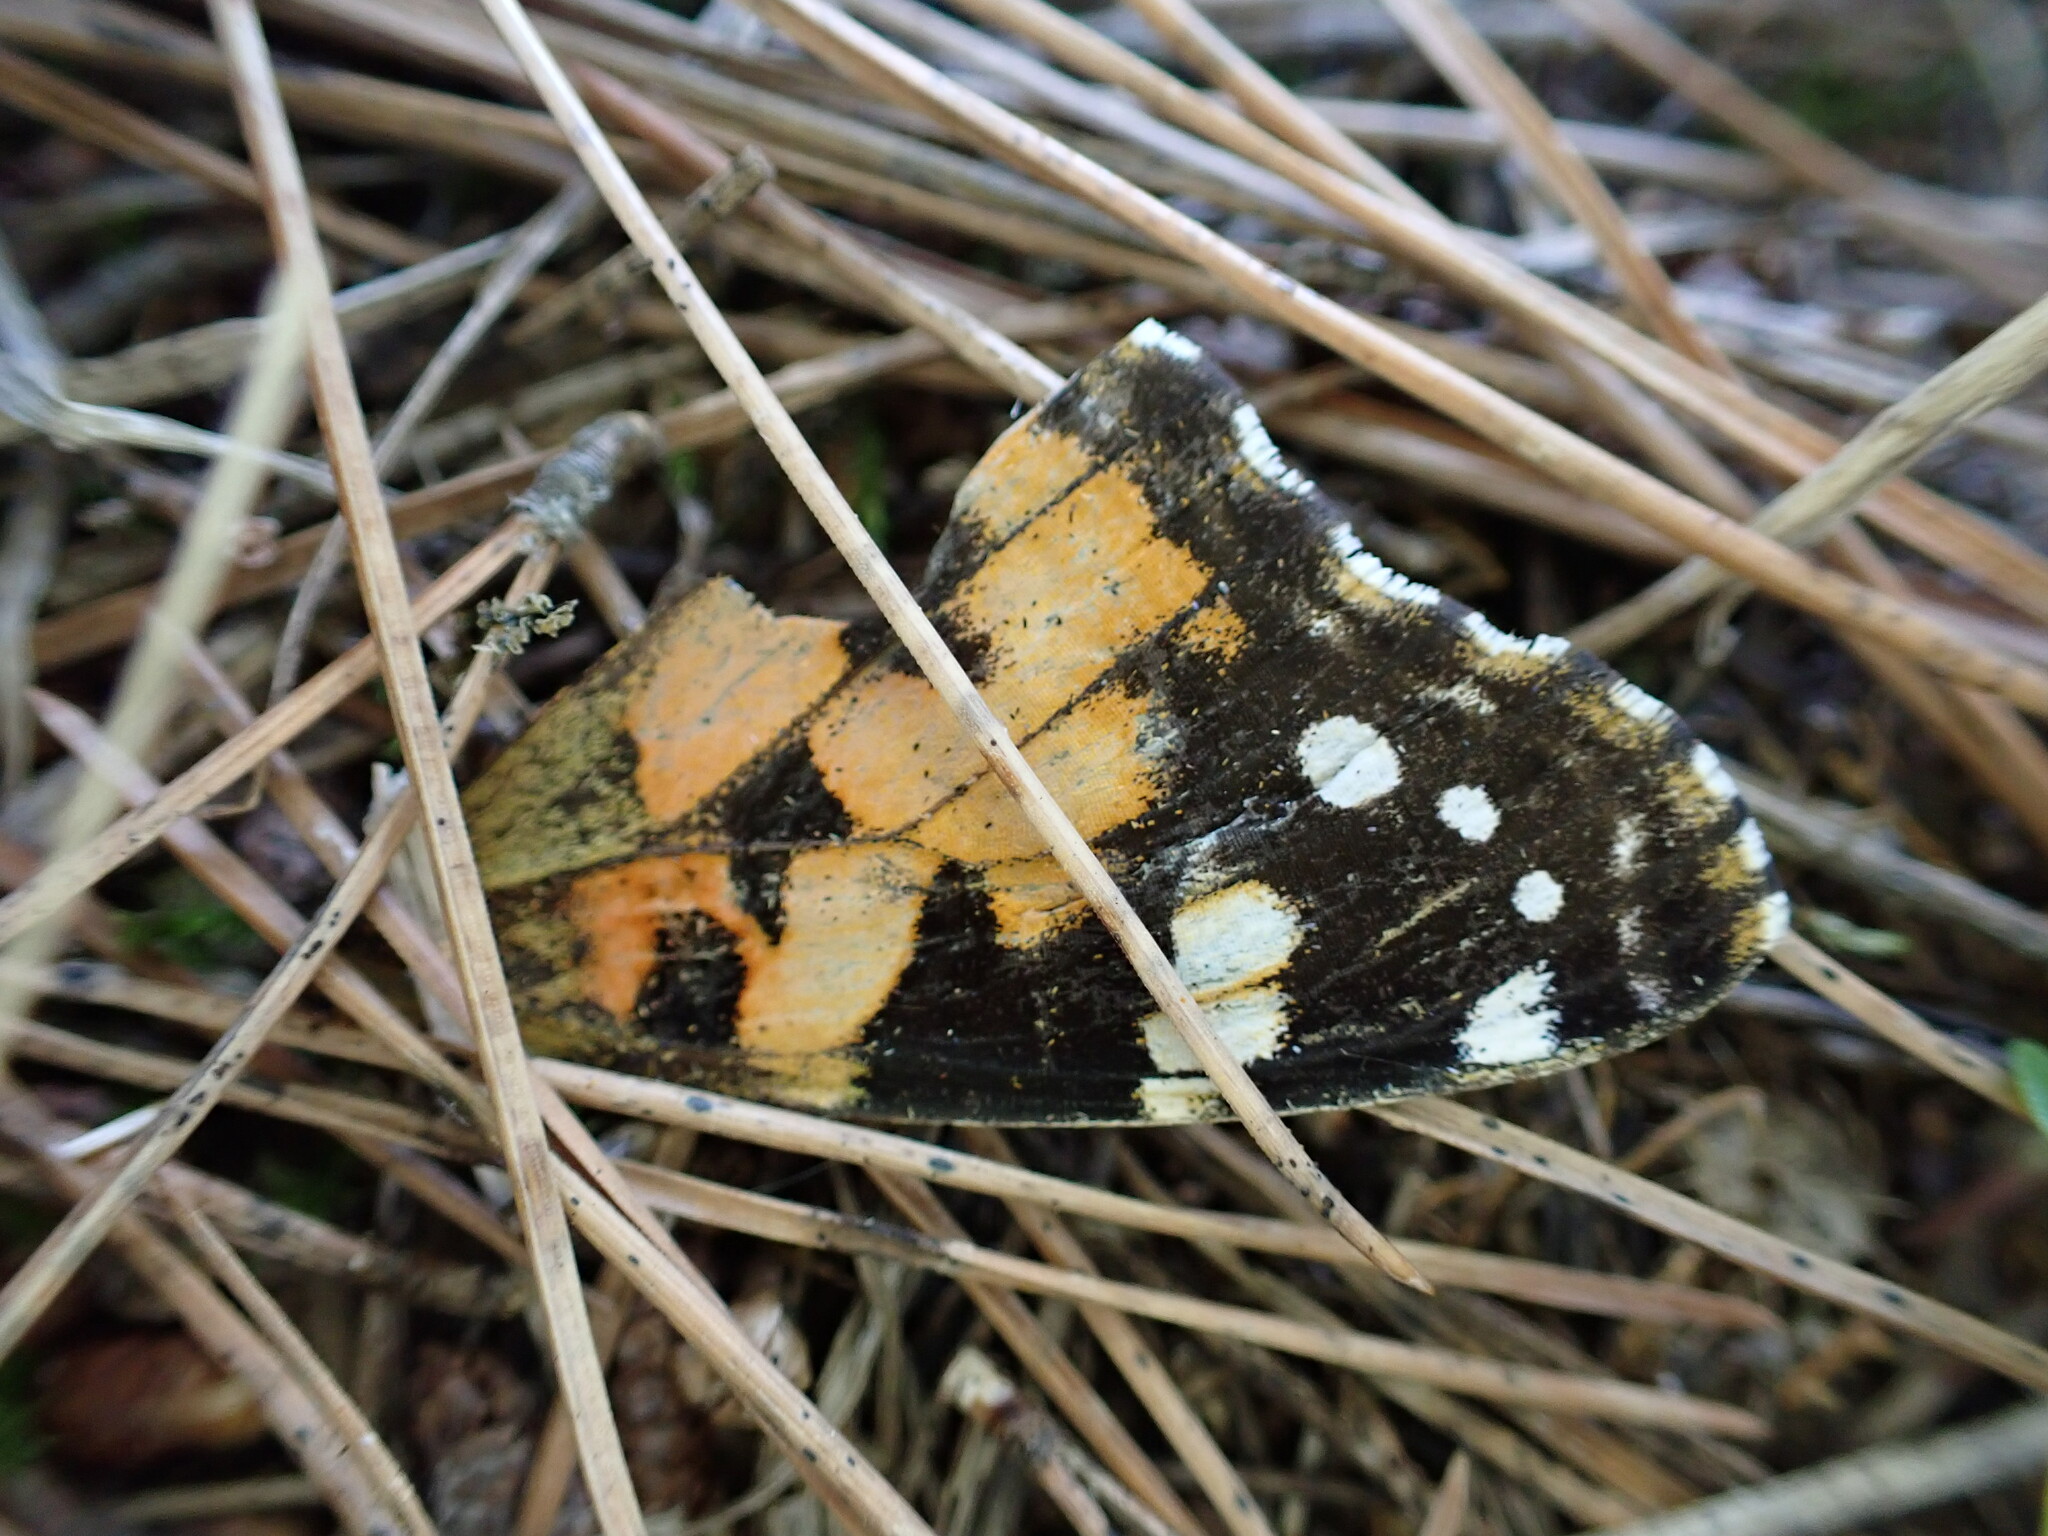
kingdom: Animalia
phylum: Arthropoda
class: Insecta
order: Lepidoptera
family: Nymphalidae
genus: Vanessa
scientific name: Vanessa cardui
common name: Painted lady
